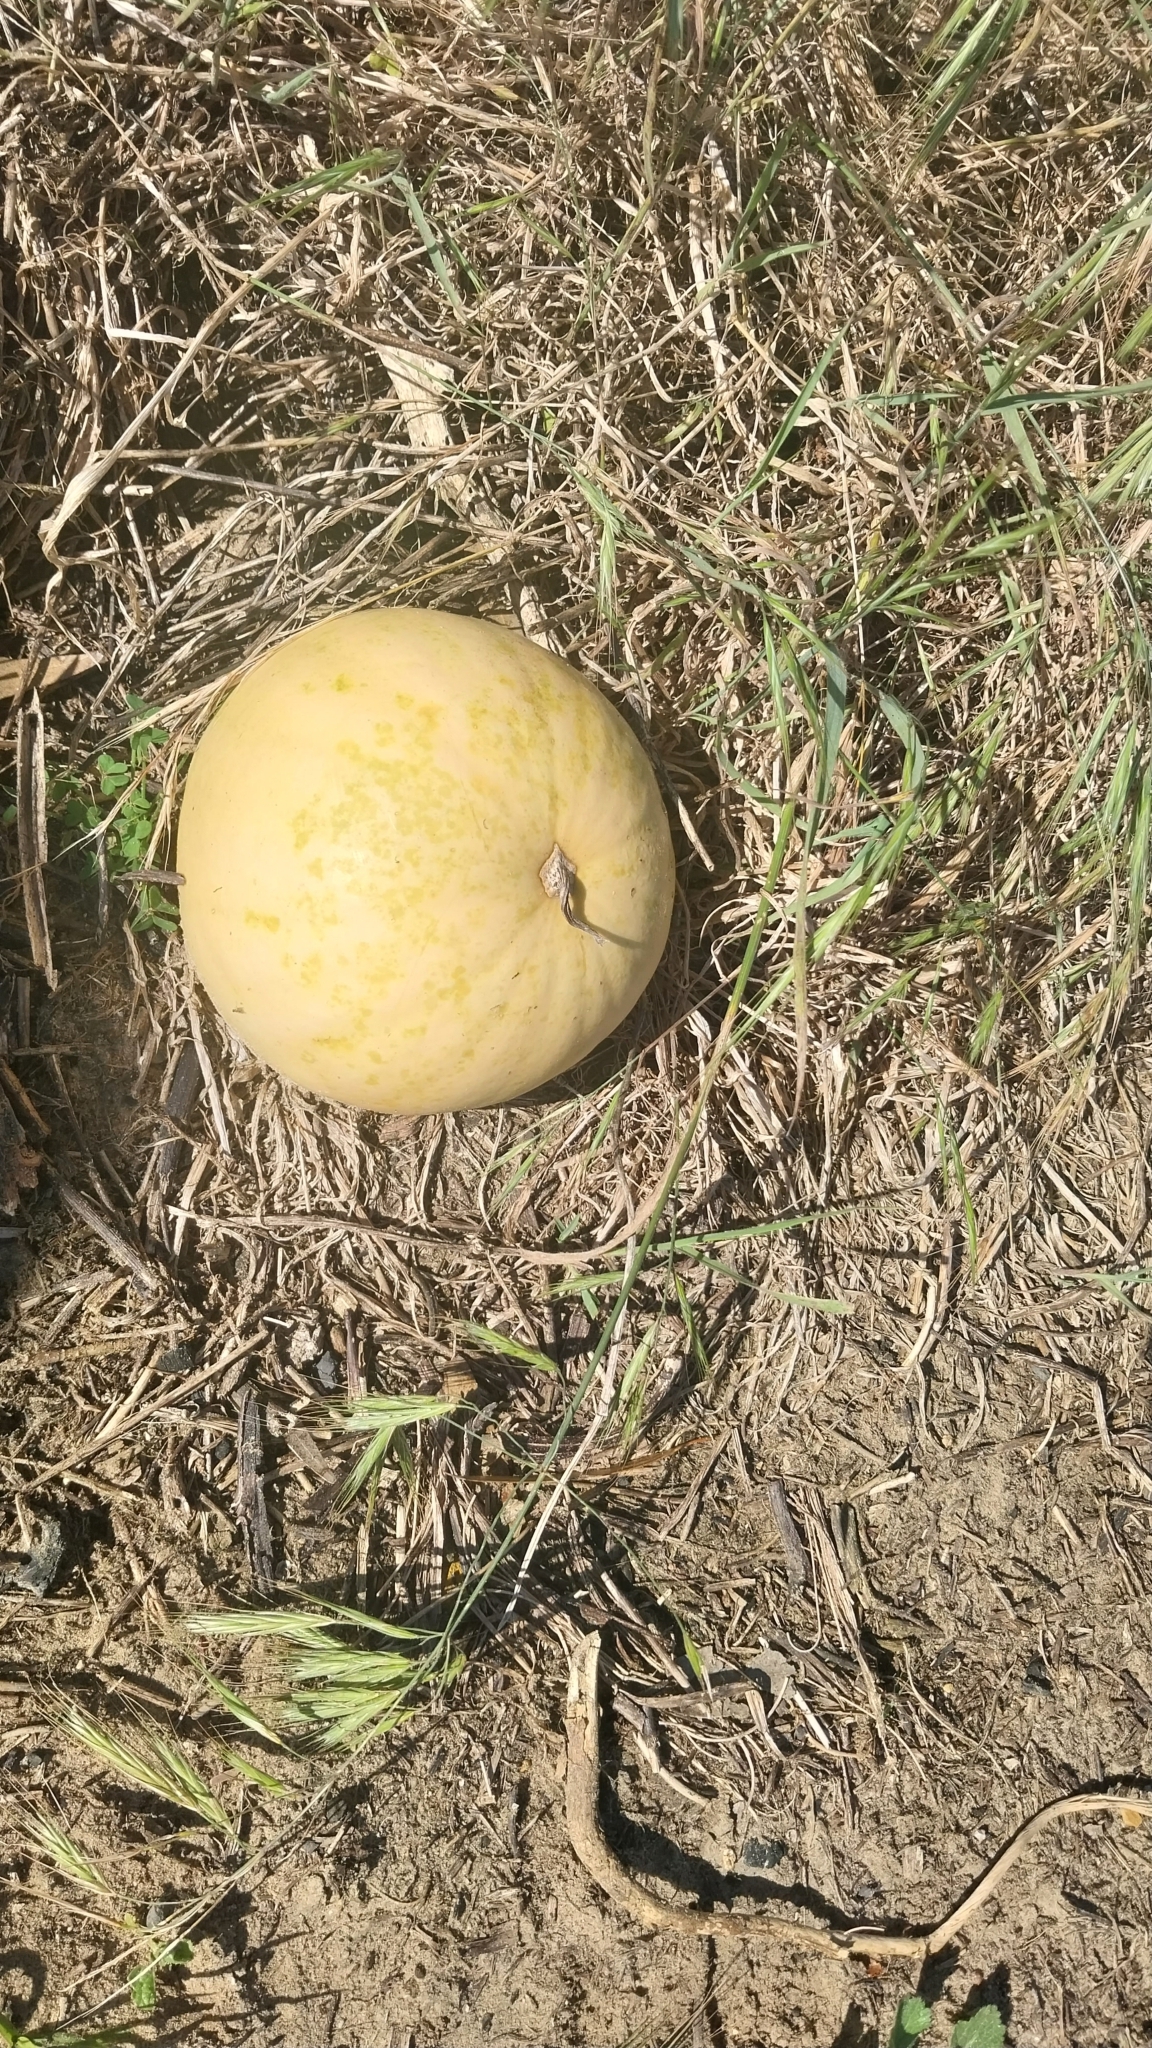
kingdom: Plantae
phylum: Tracheophyta
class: Magnoliopsida
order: Cucurbitales
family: Cucurbitaceae
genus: Citrullus
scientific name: Citrullus amarus
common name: Fodder-melon
